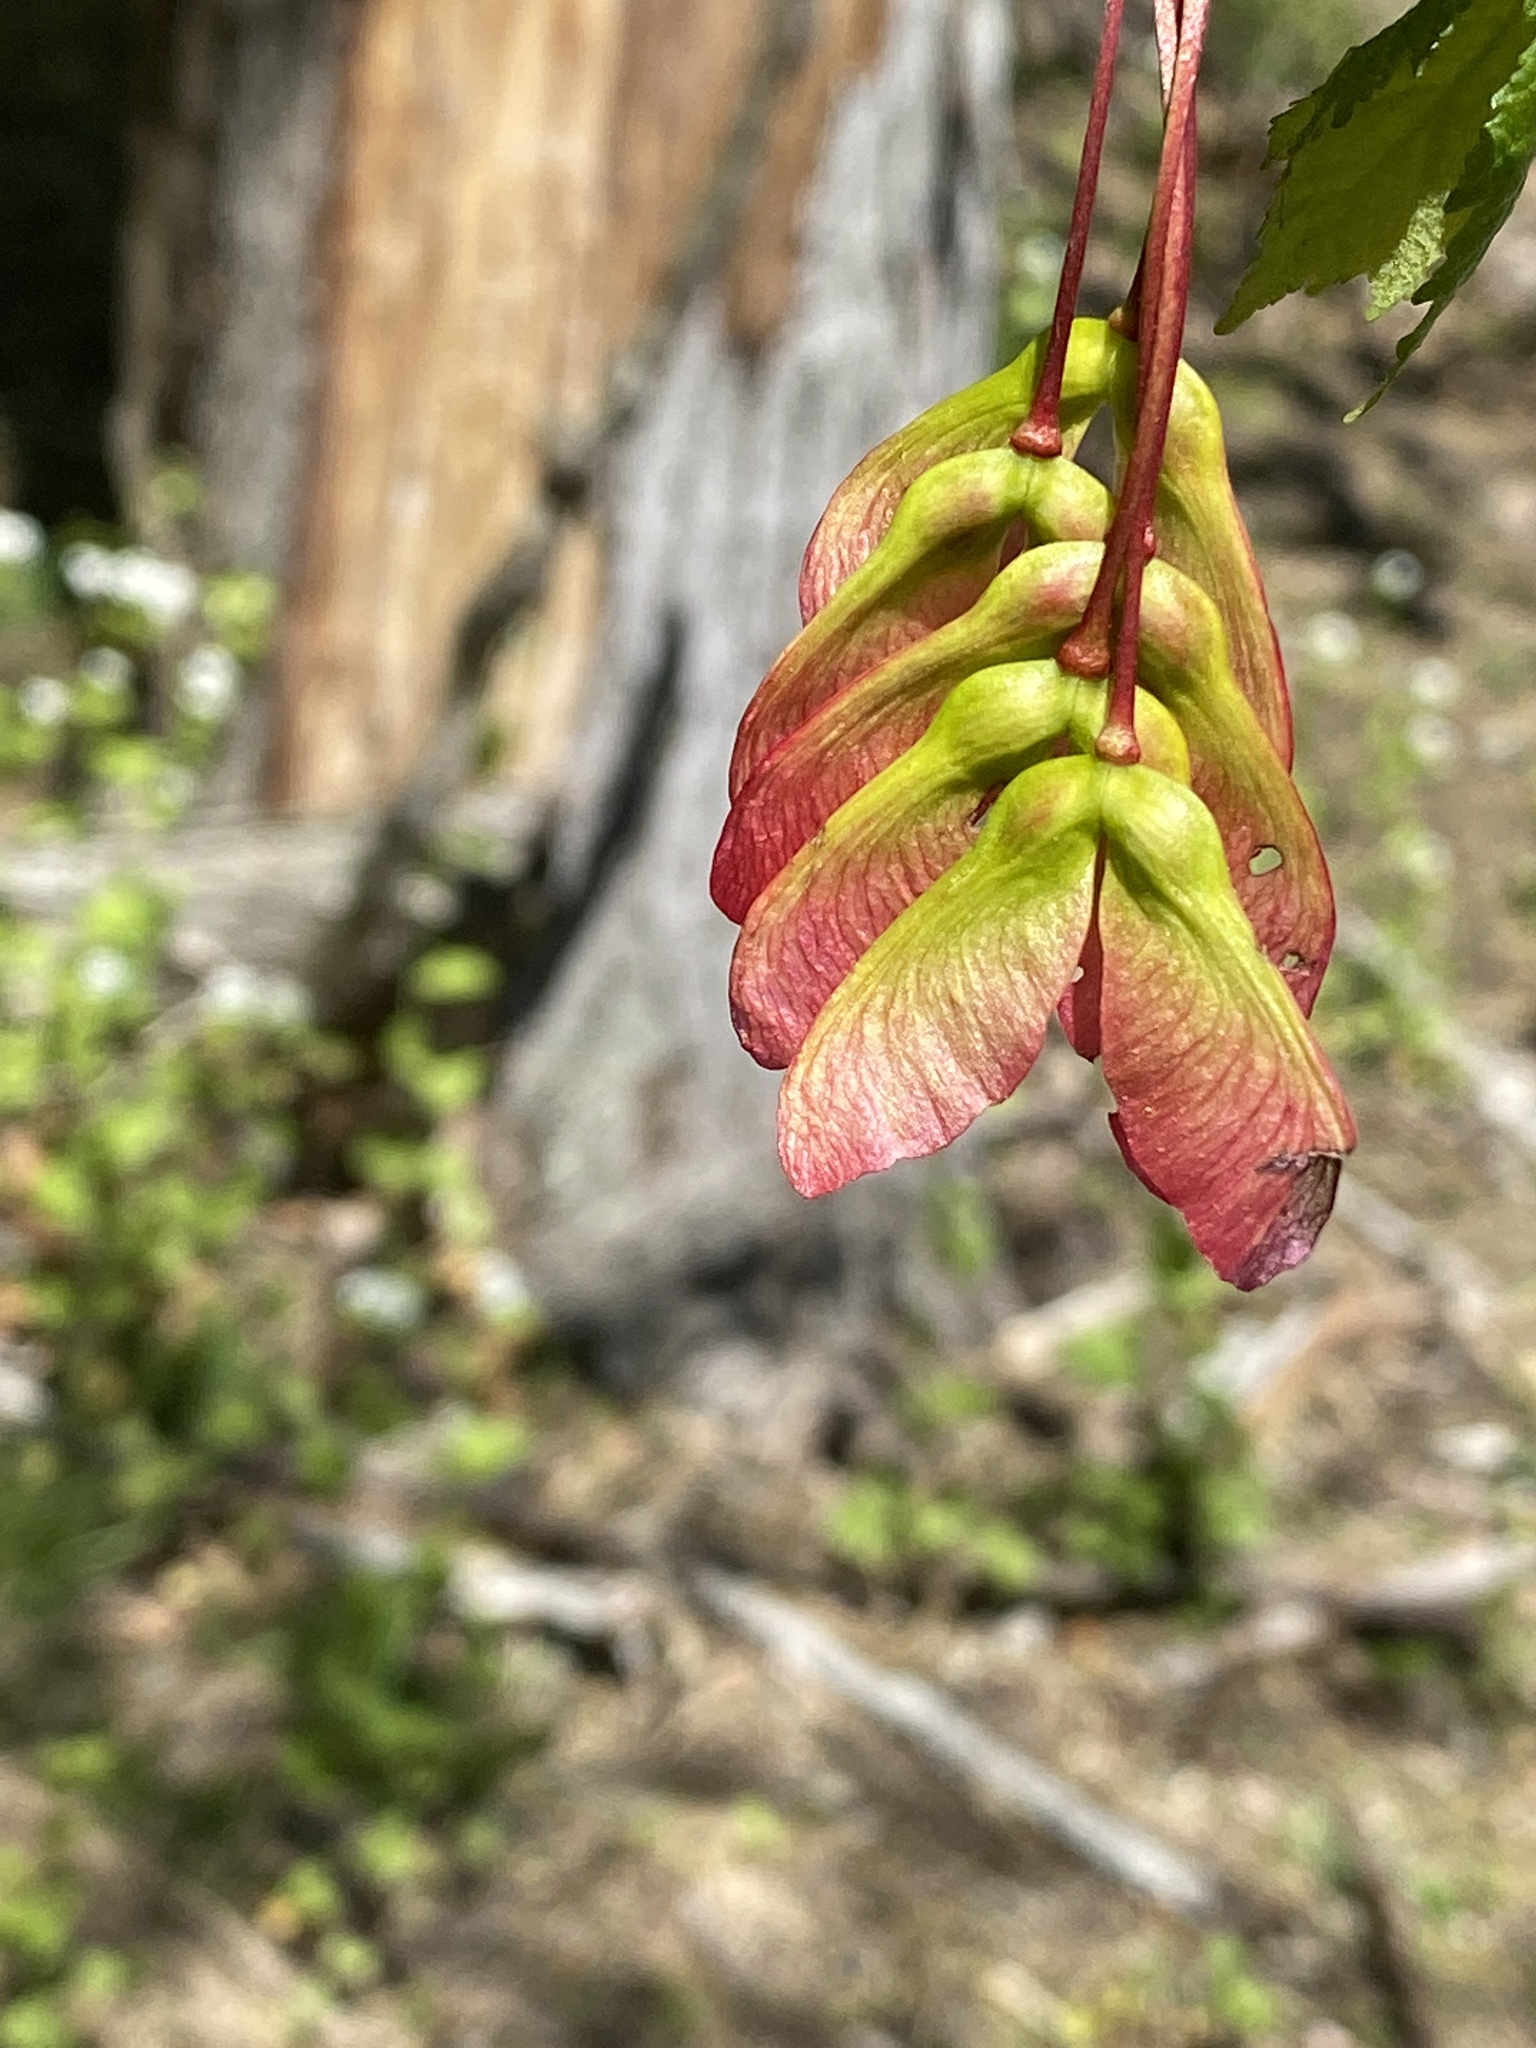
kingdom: Plantae
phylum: Tracheophyta
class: Magnoliopsida
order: Sapindales
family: Sapindaceae
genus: Acer
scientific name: Acer rubrum
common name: Red maple
